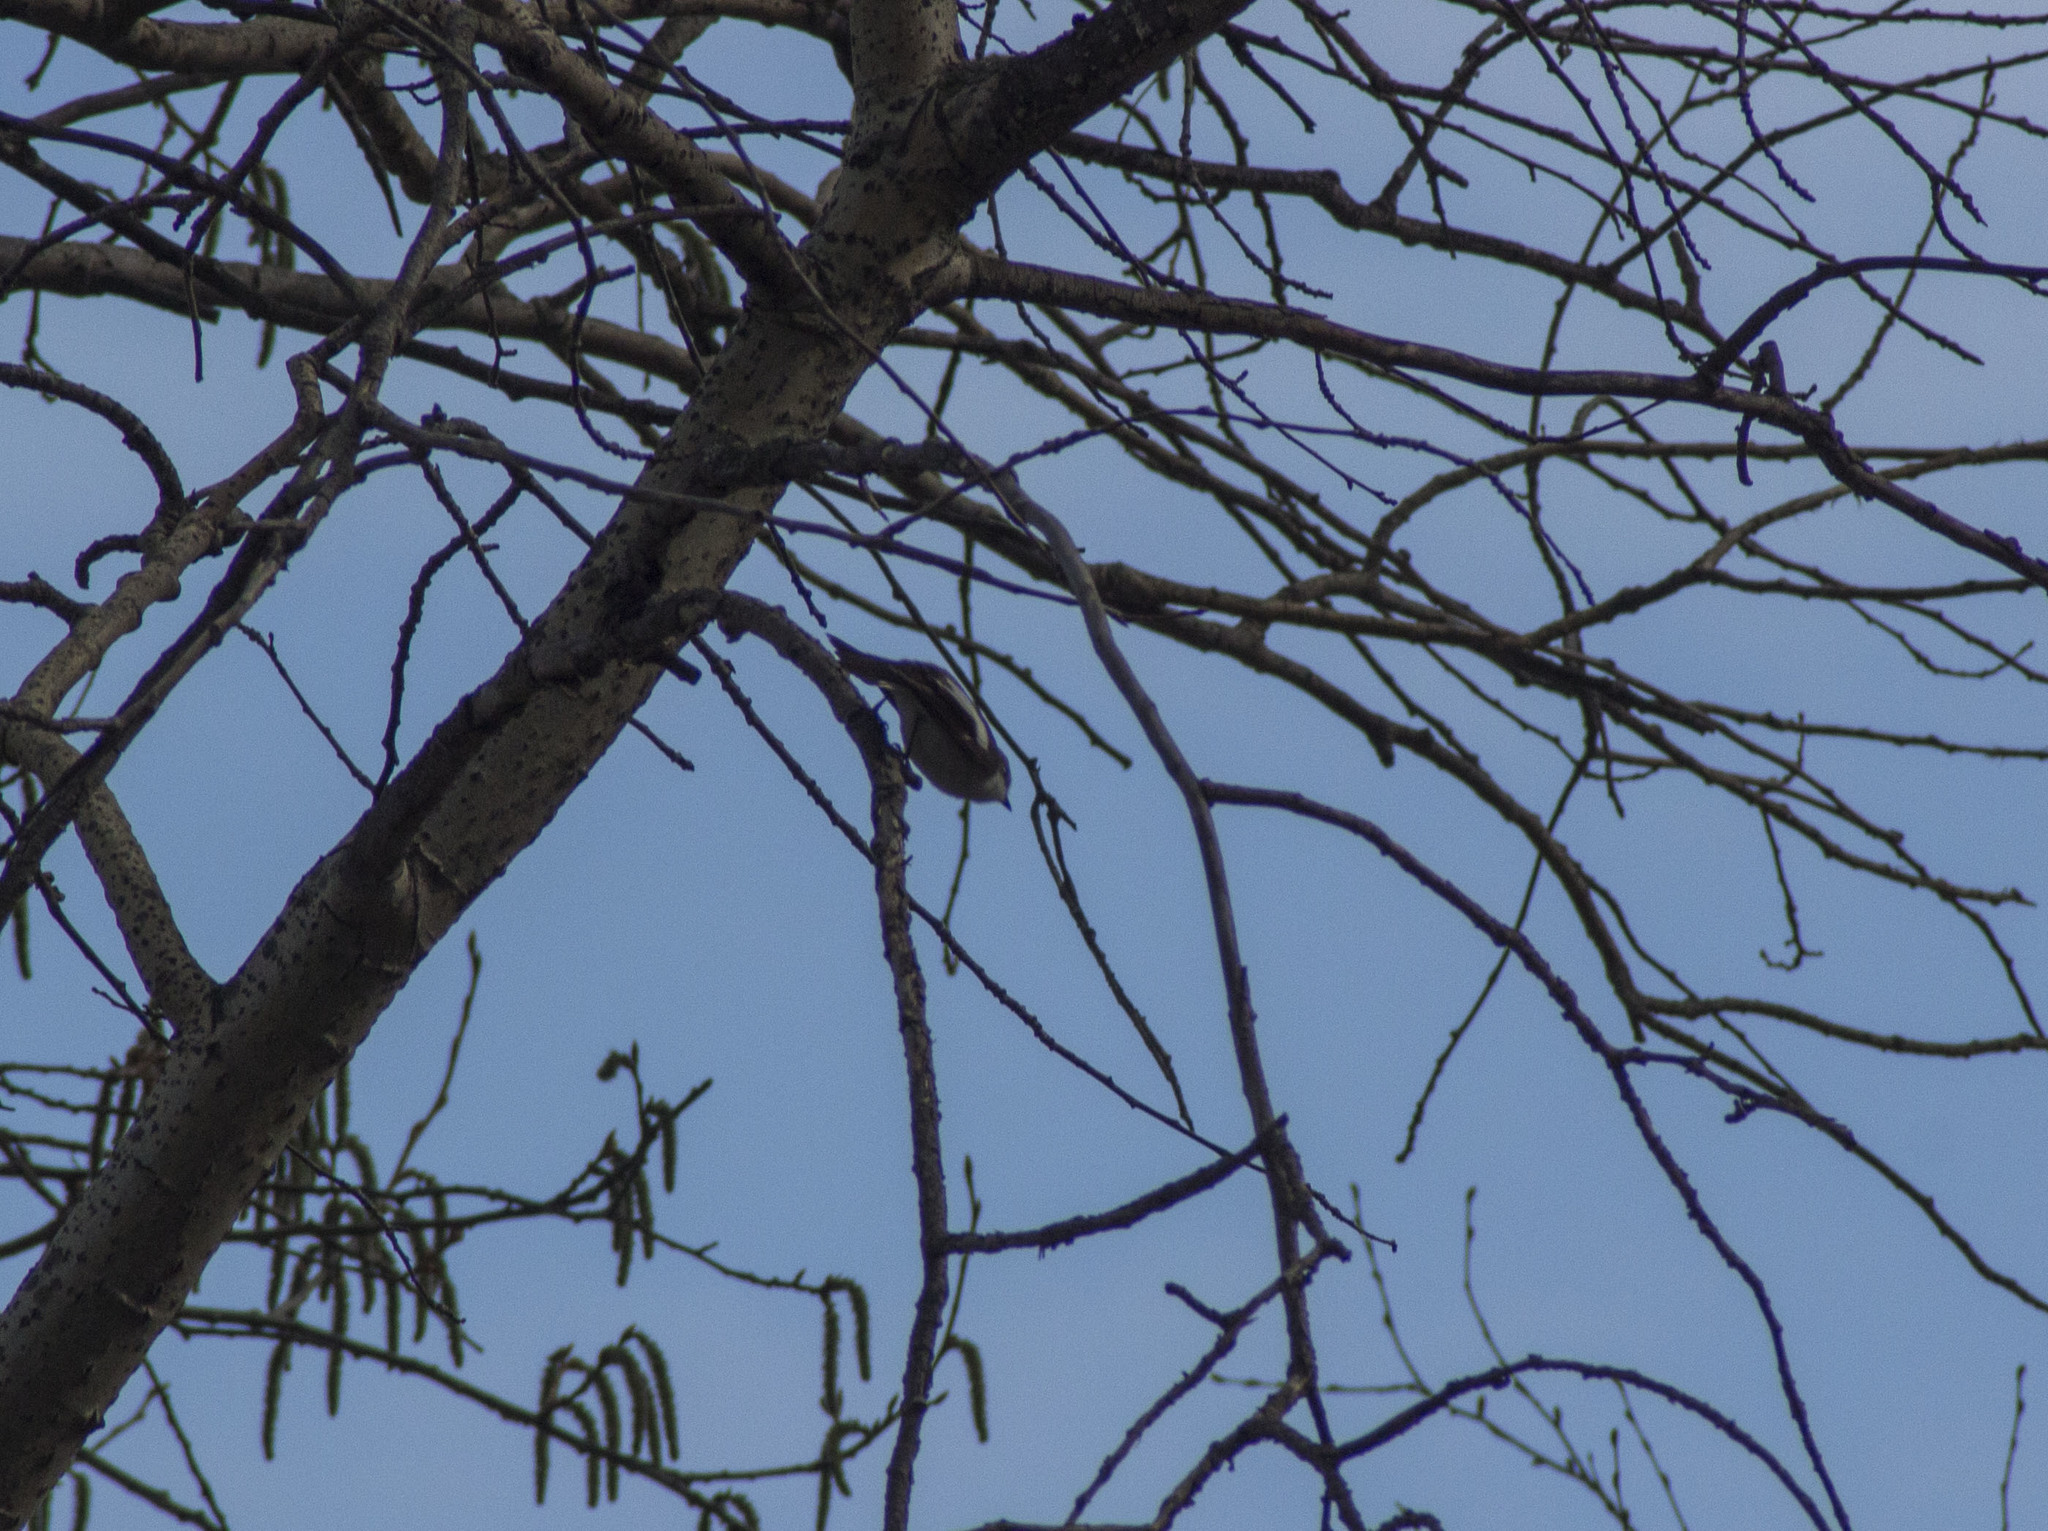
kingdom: Animalia
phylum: Chordata
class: Aves
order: Passeriformes
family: Muscicapidae
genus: Ficedula
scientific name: Ficedula hypoleuca
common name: European pied flycatcher
